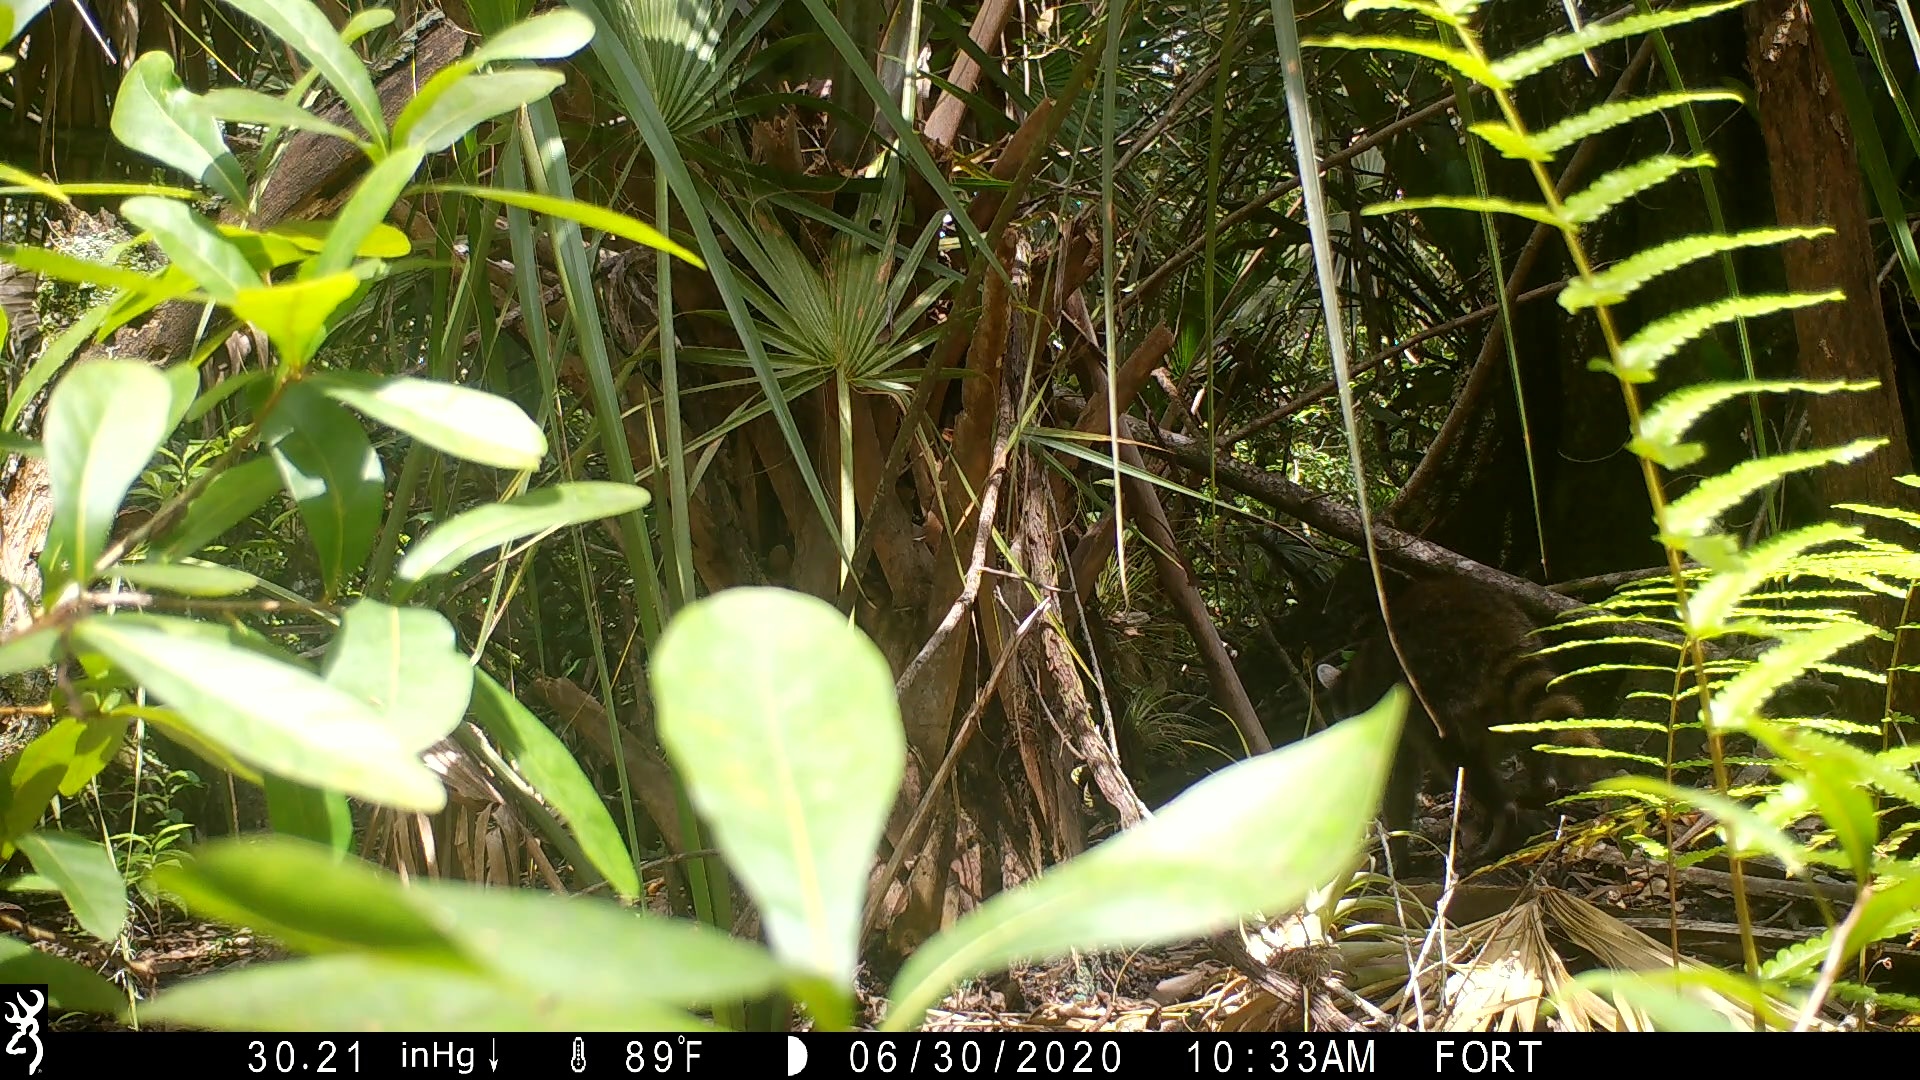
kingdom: Animalia
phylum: Chordata
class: Mammalia
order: Carnivora
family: Procyonidae
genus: Procyon
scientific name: Procyon lotor
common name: Raccoon
